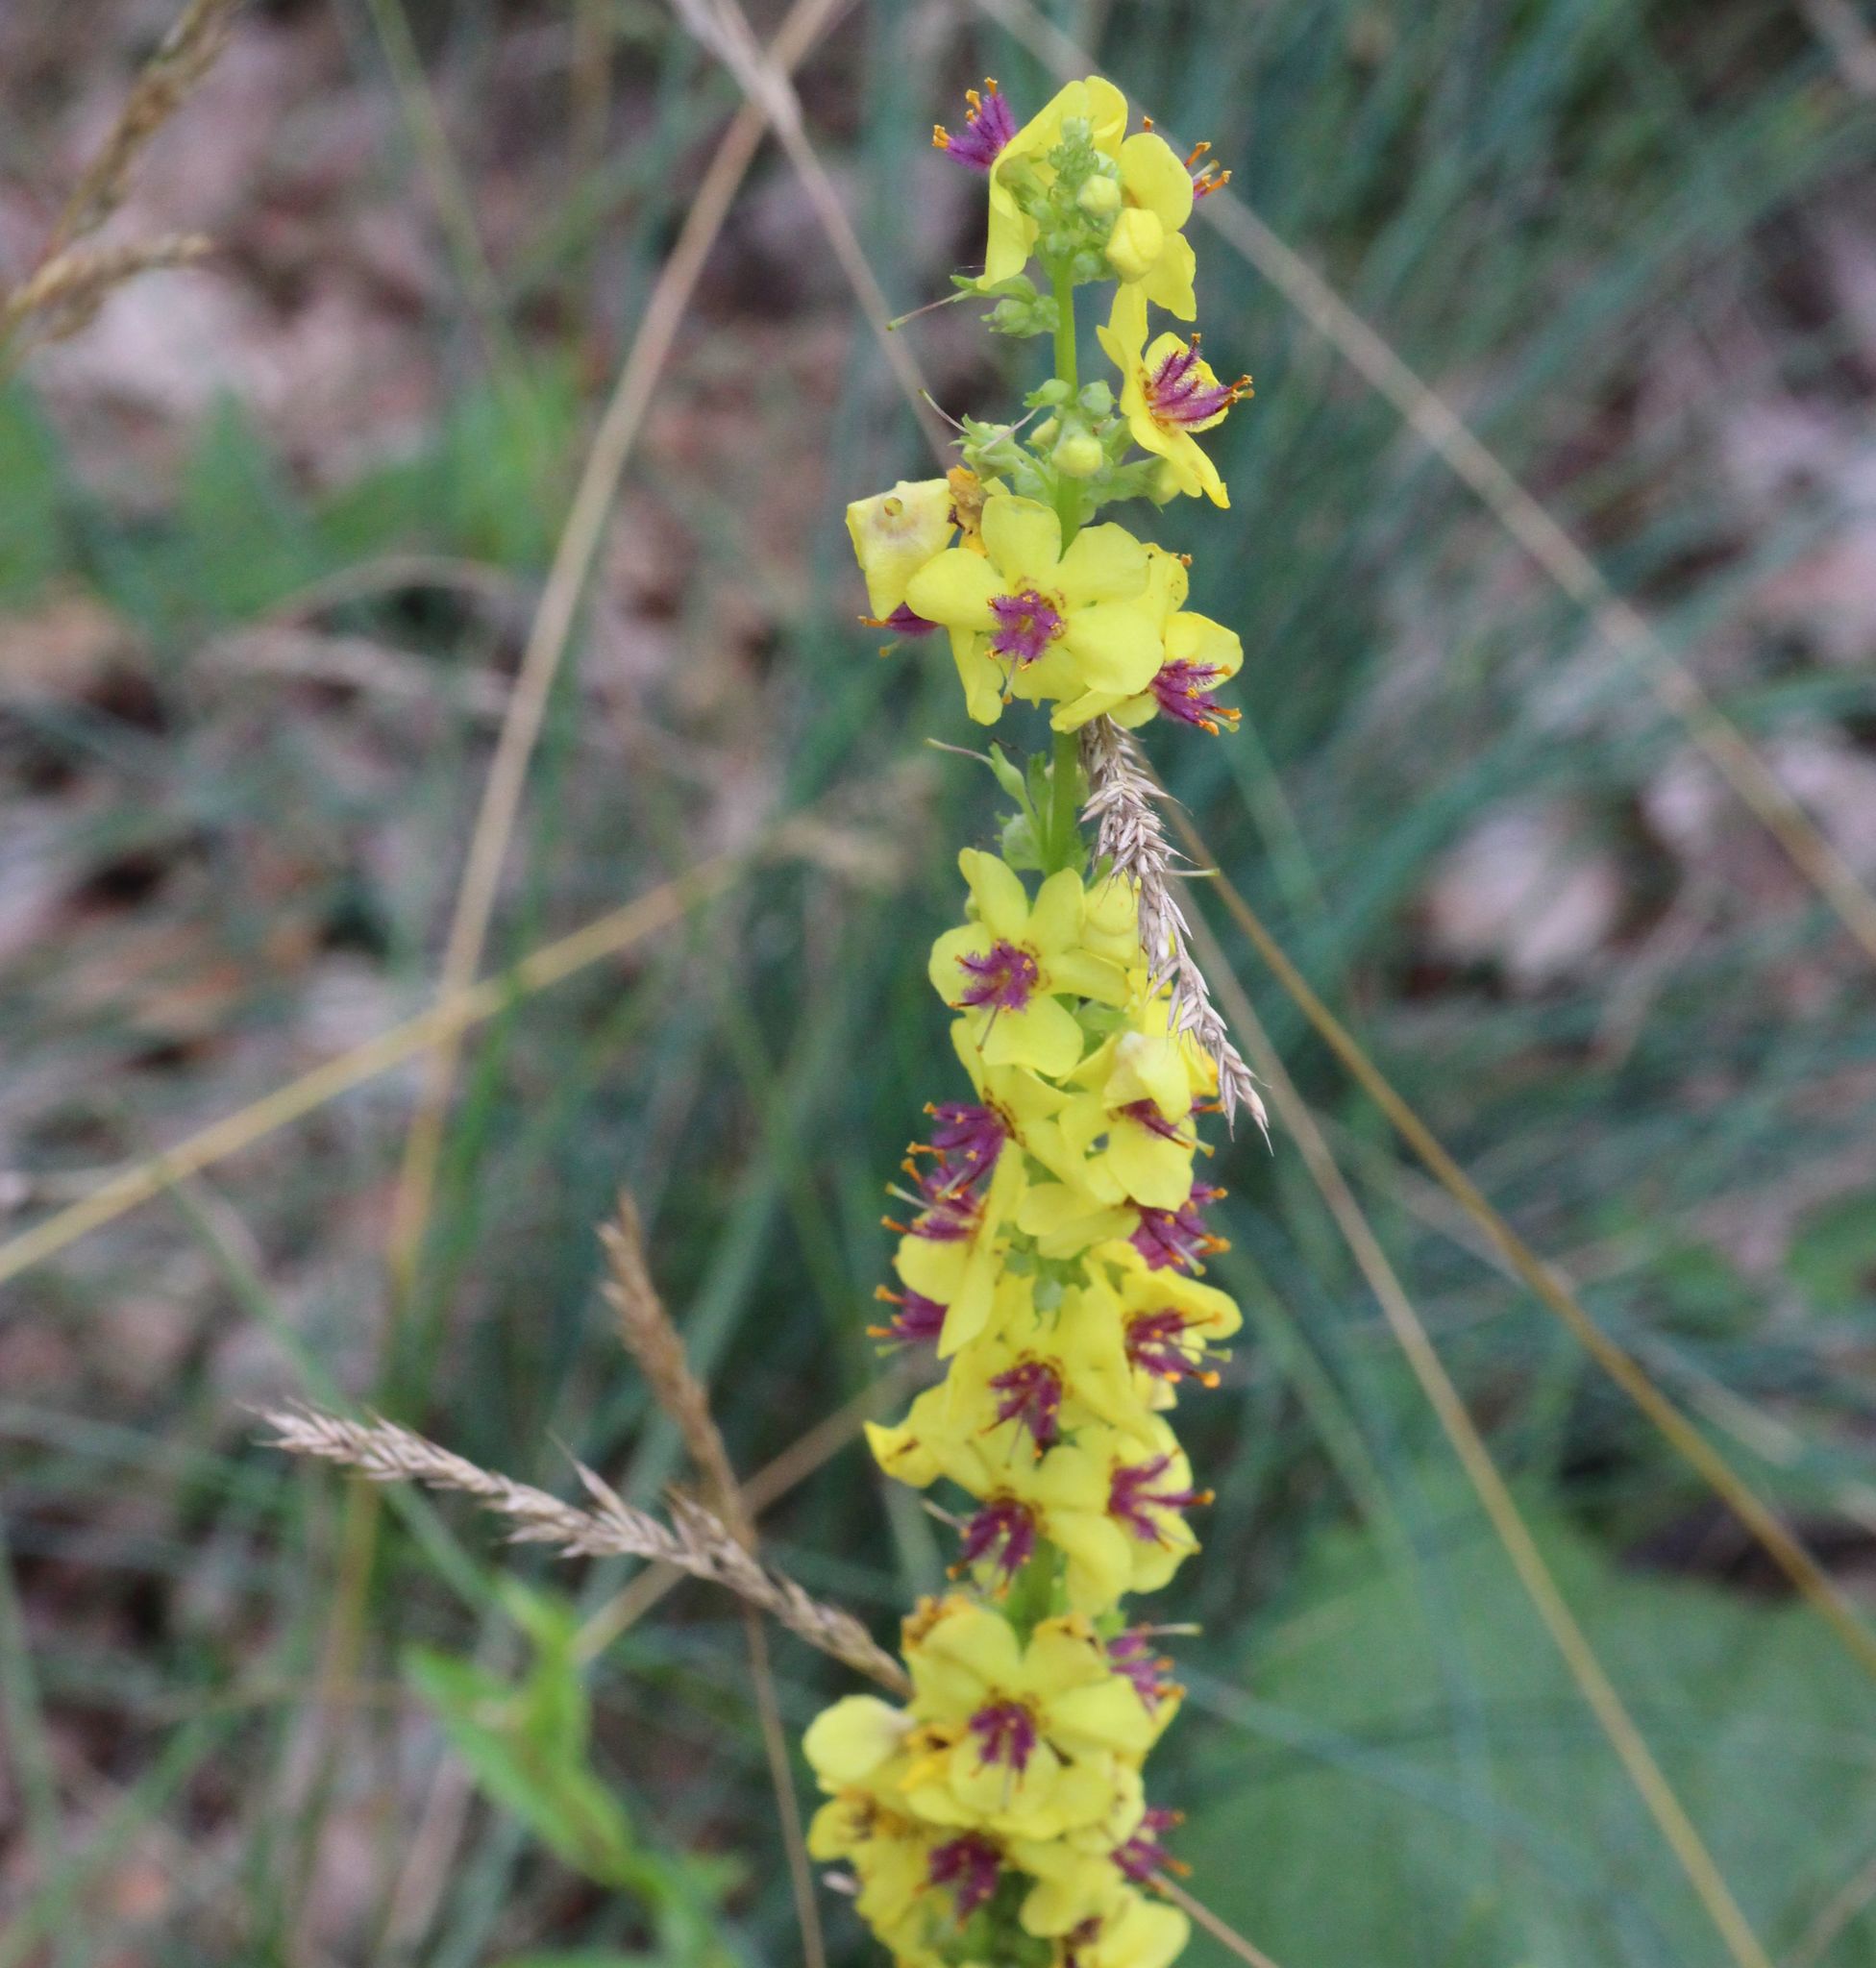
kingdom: Plantae
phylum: Tracheophyta
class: Magnoliopsida
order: Lamiales
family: Scrophulariaceae
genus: Verbascum
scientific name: Verbascum nigrum
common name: Dark mullein
